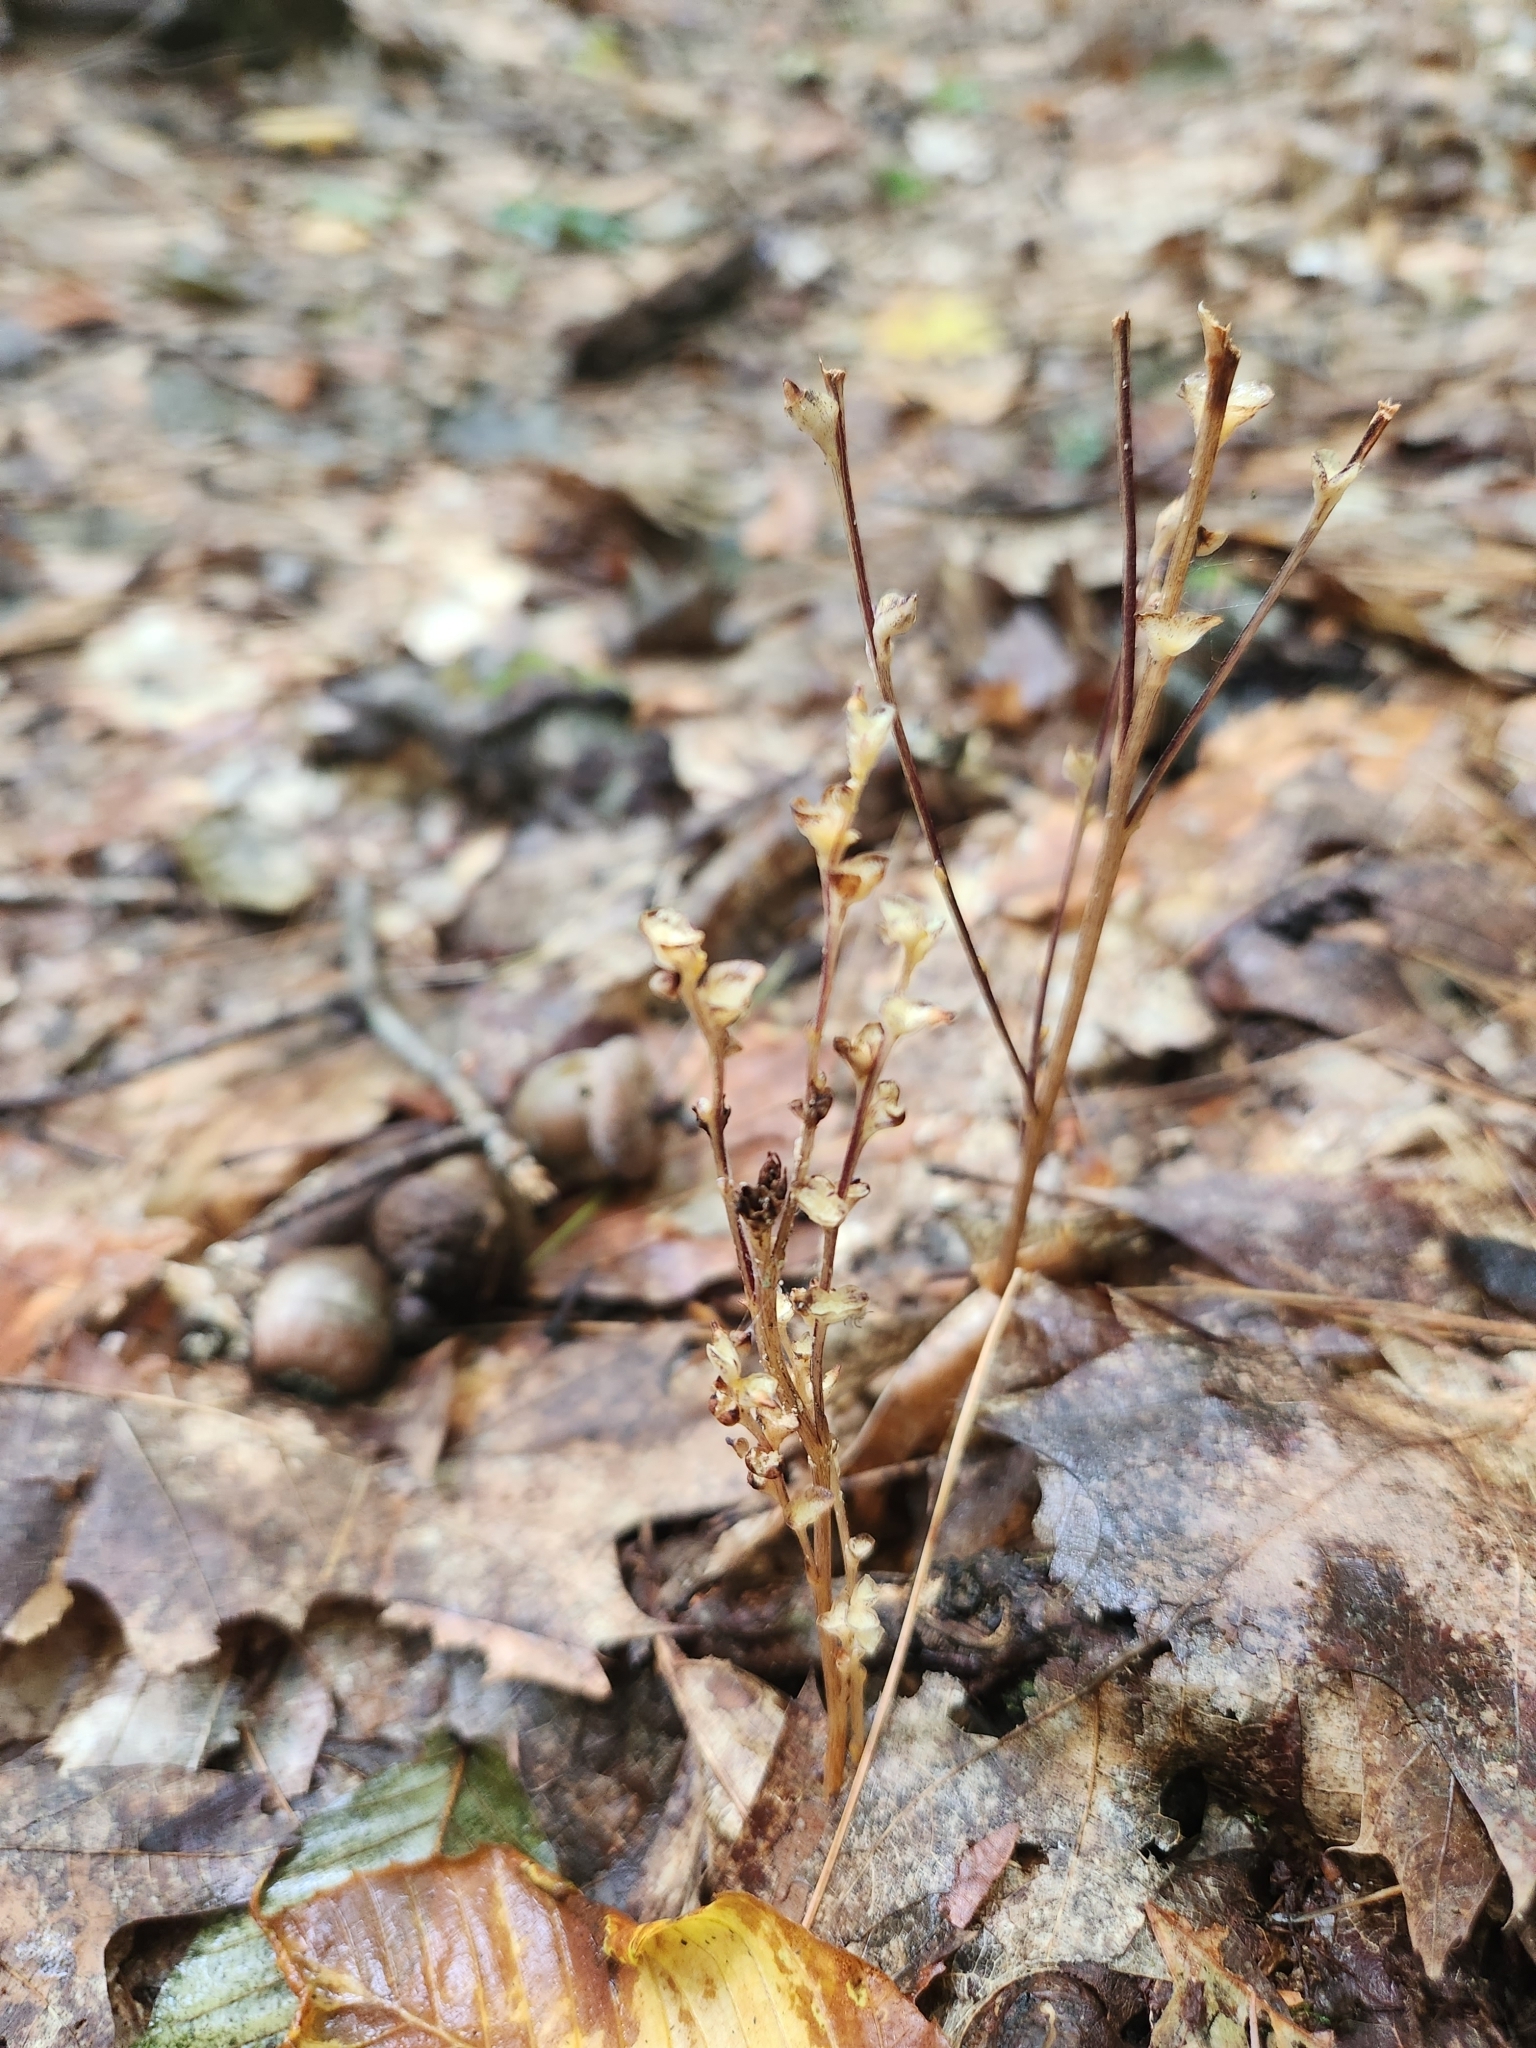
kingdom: Plantae
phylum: Tracheophyta
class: Magnoliopsida
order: Lamiales
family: Orobanchaceae
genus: Epifagus
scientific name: Epifagus virginiana
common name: Beechdrops
